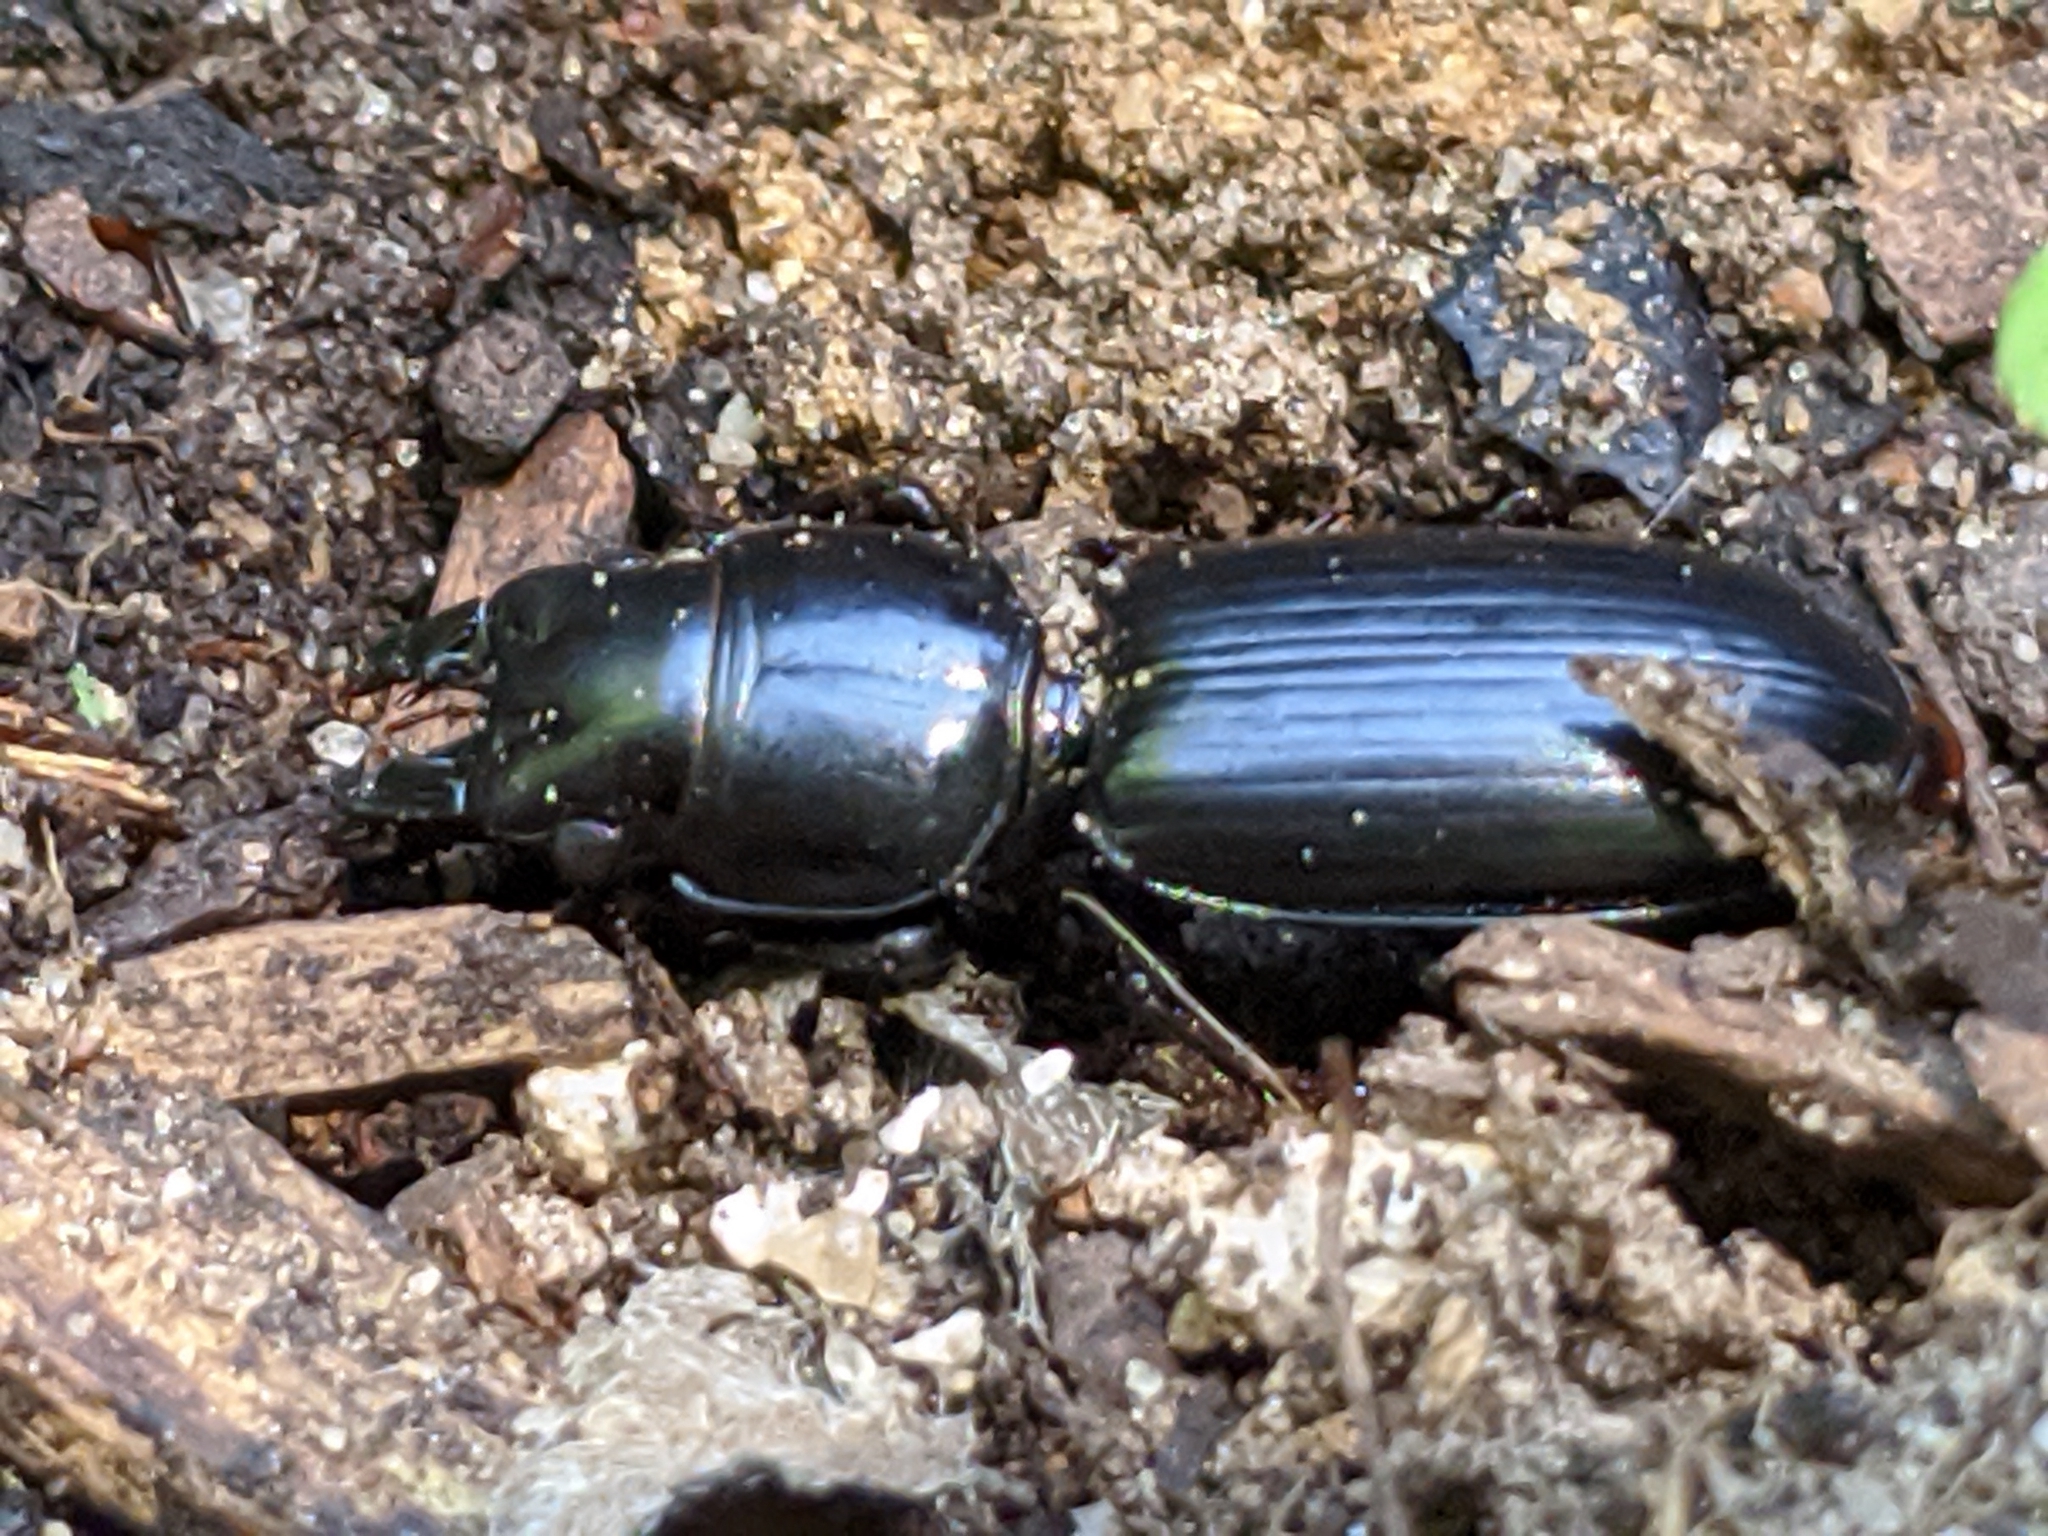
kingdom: Animalia
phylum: Arthropoda
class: Insecta
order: Coleoptera
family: Carabidae
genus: Scarites
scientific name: Scarites subterraneus
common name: Big-headed ground beetle
